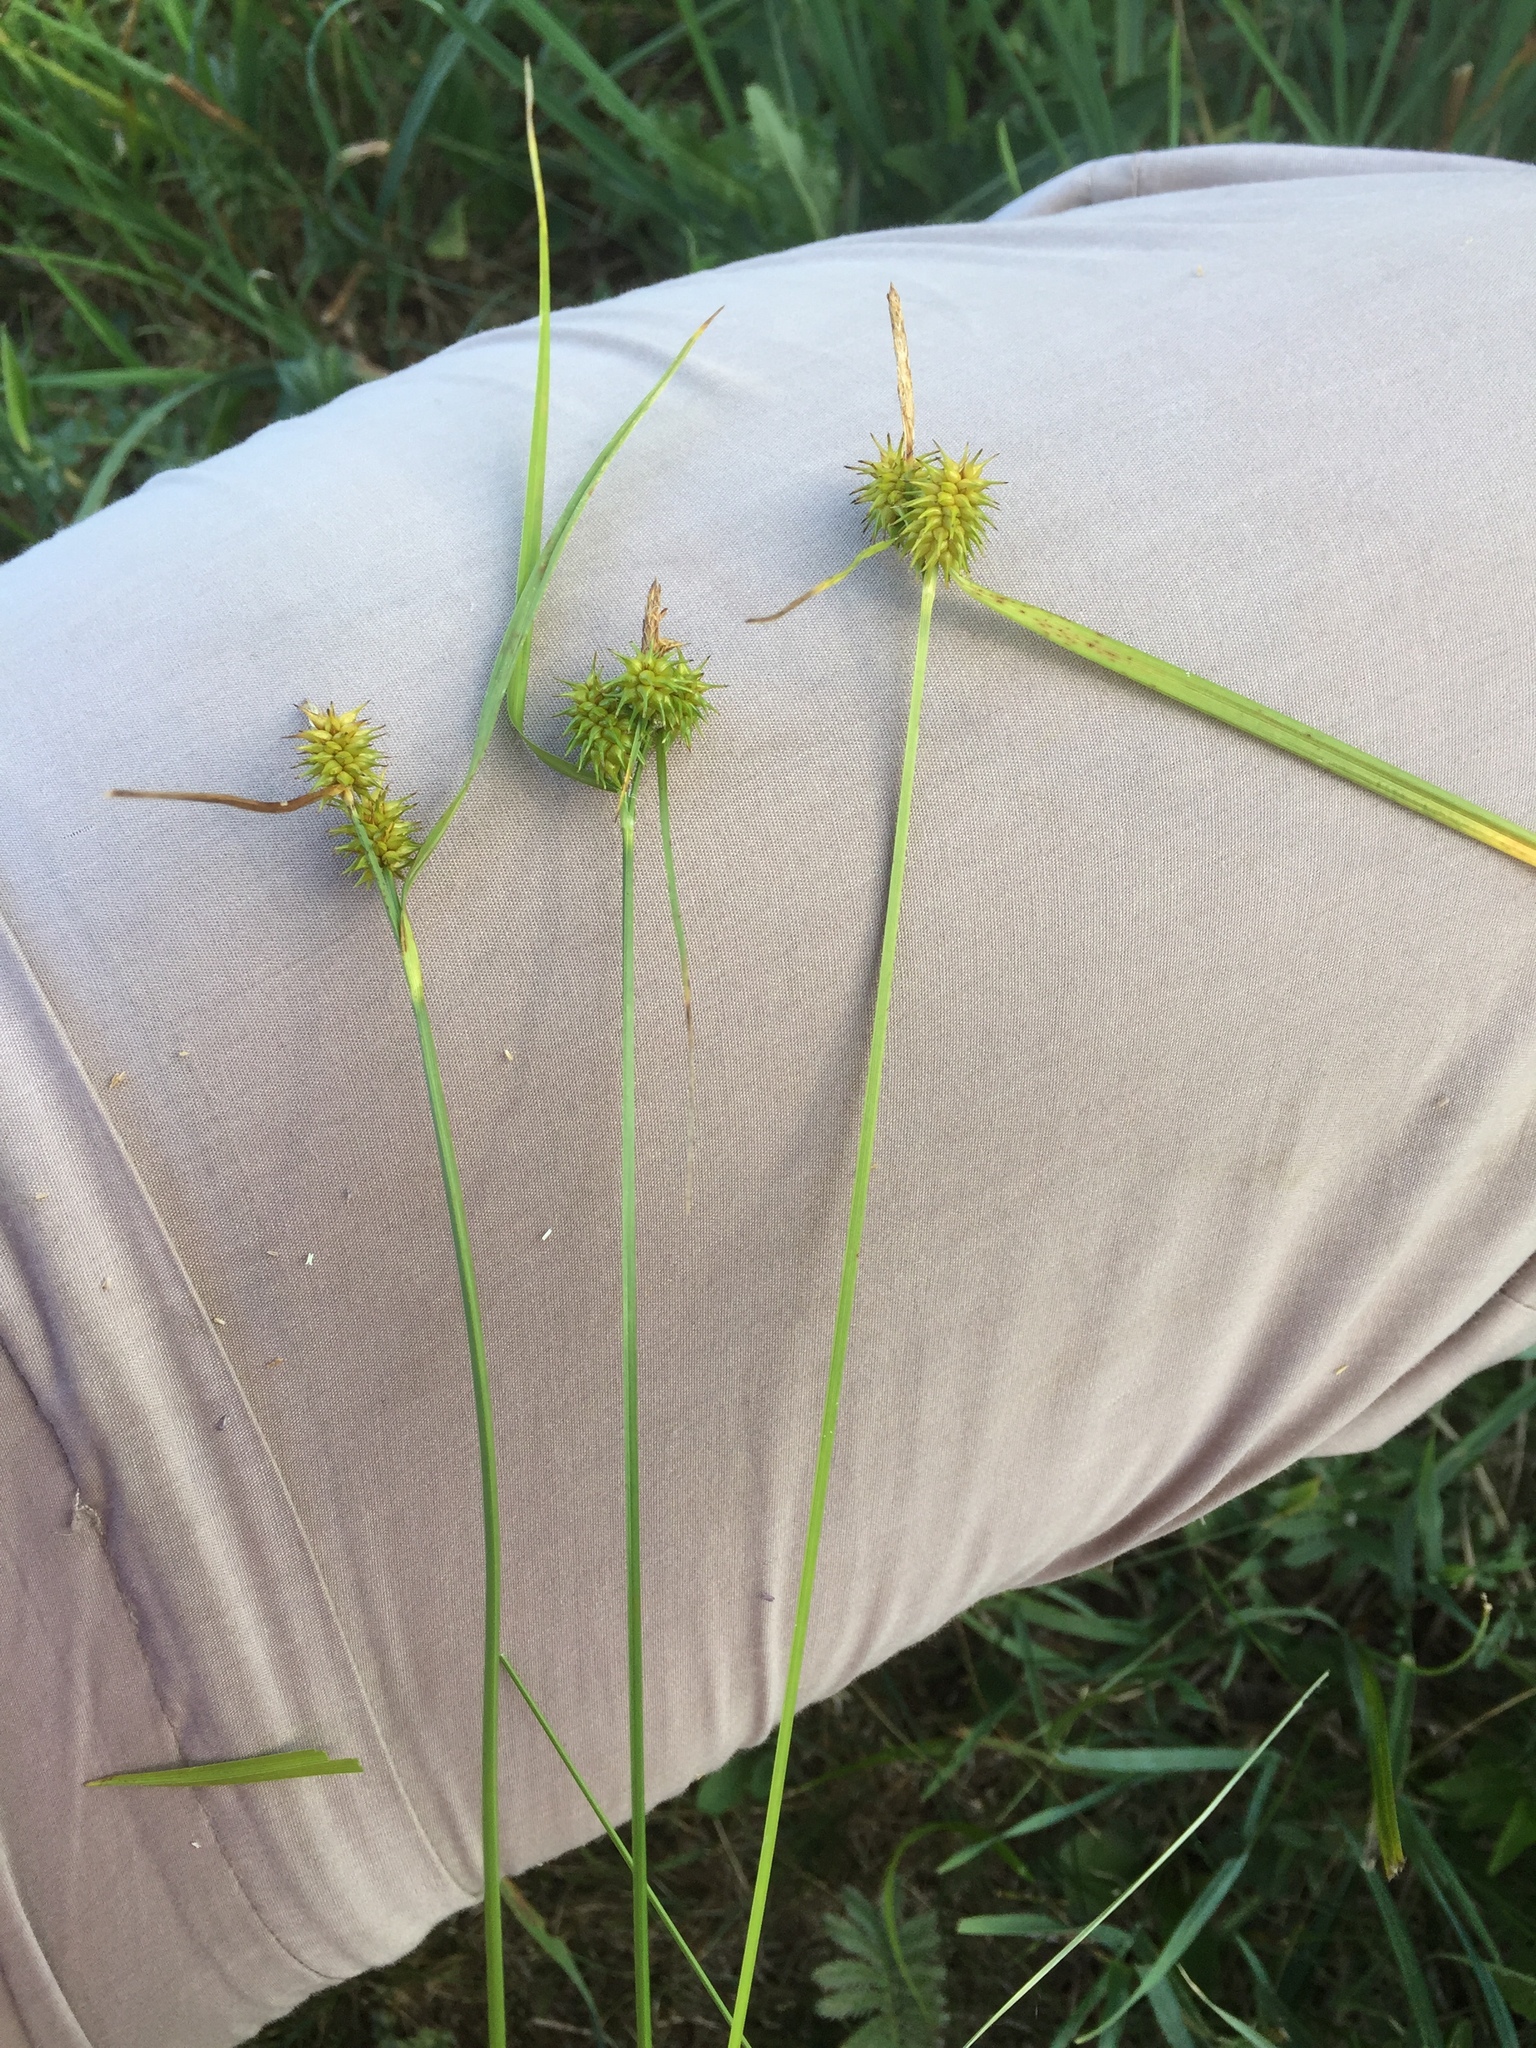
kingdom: Plantae
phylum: Tracheophyta
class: Liliopsida
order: Poales
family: Cyperaceae
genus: Carex
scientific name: Carex flava
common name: Large yellow-sedge
